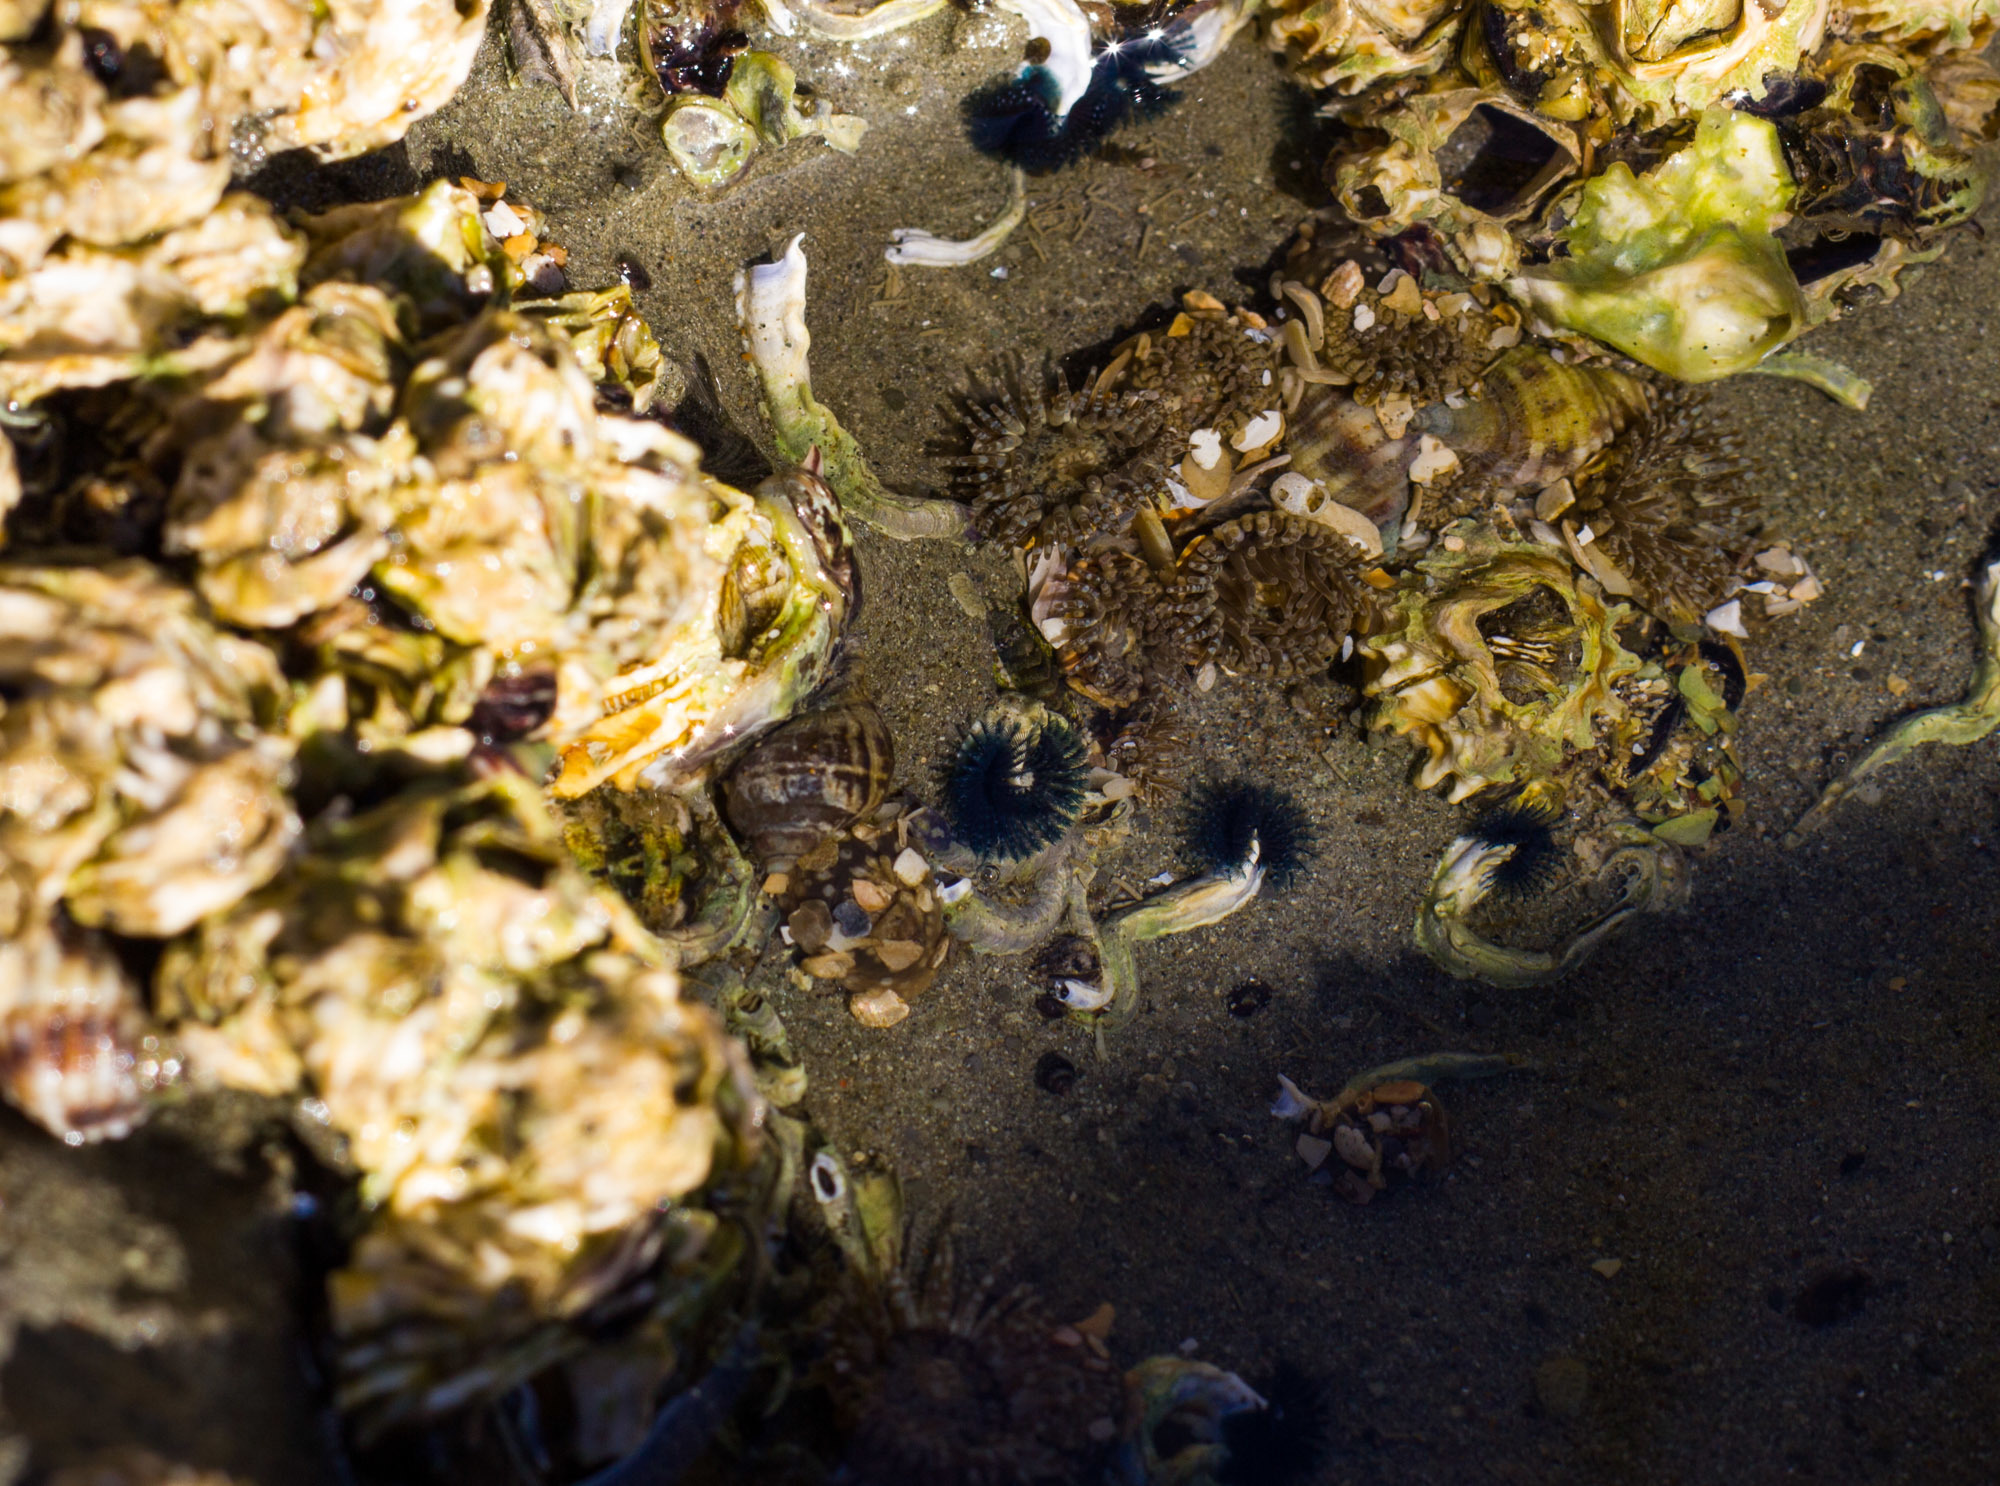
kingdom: Animalia
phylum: Annelida
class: Polychaeta
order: Sabellida
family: Serpulidae
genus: Spirobranchus
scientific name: Spirobranchus cariniferus
